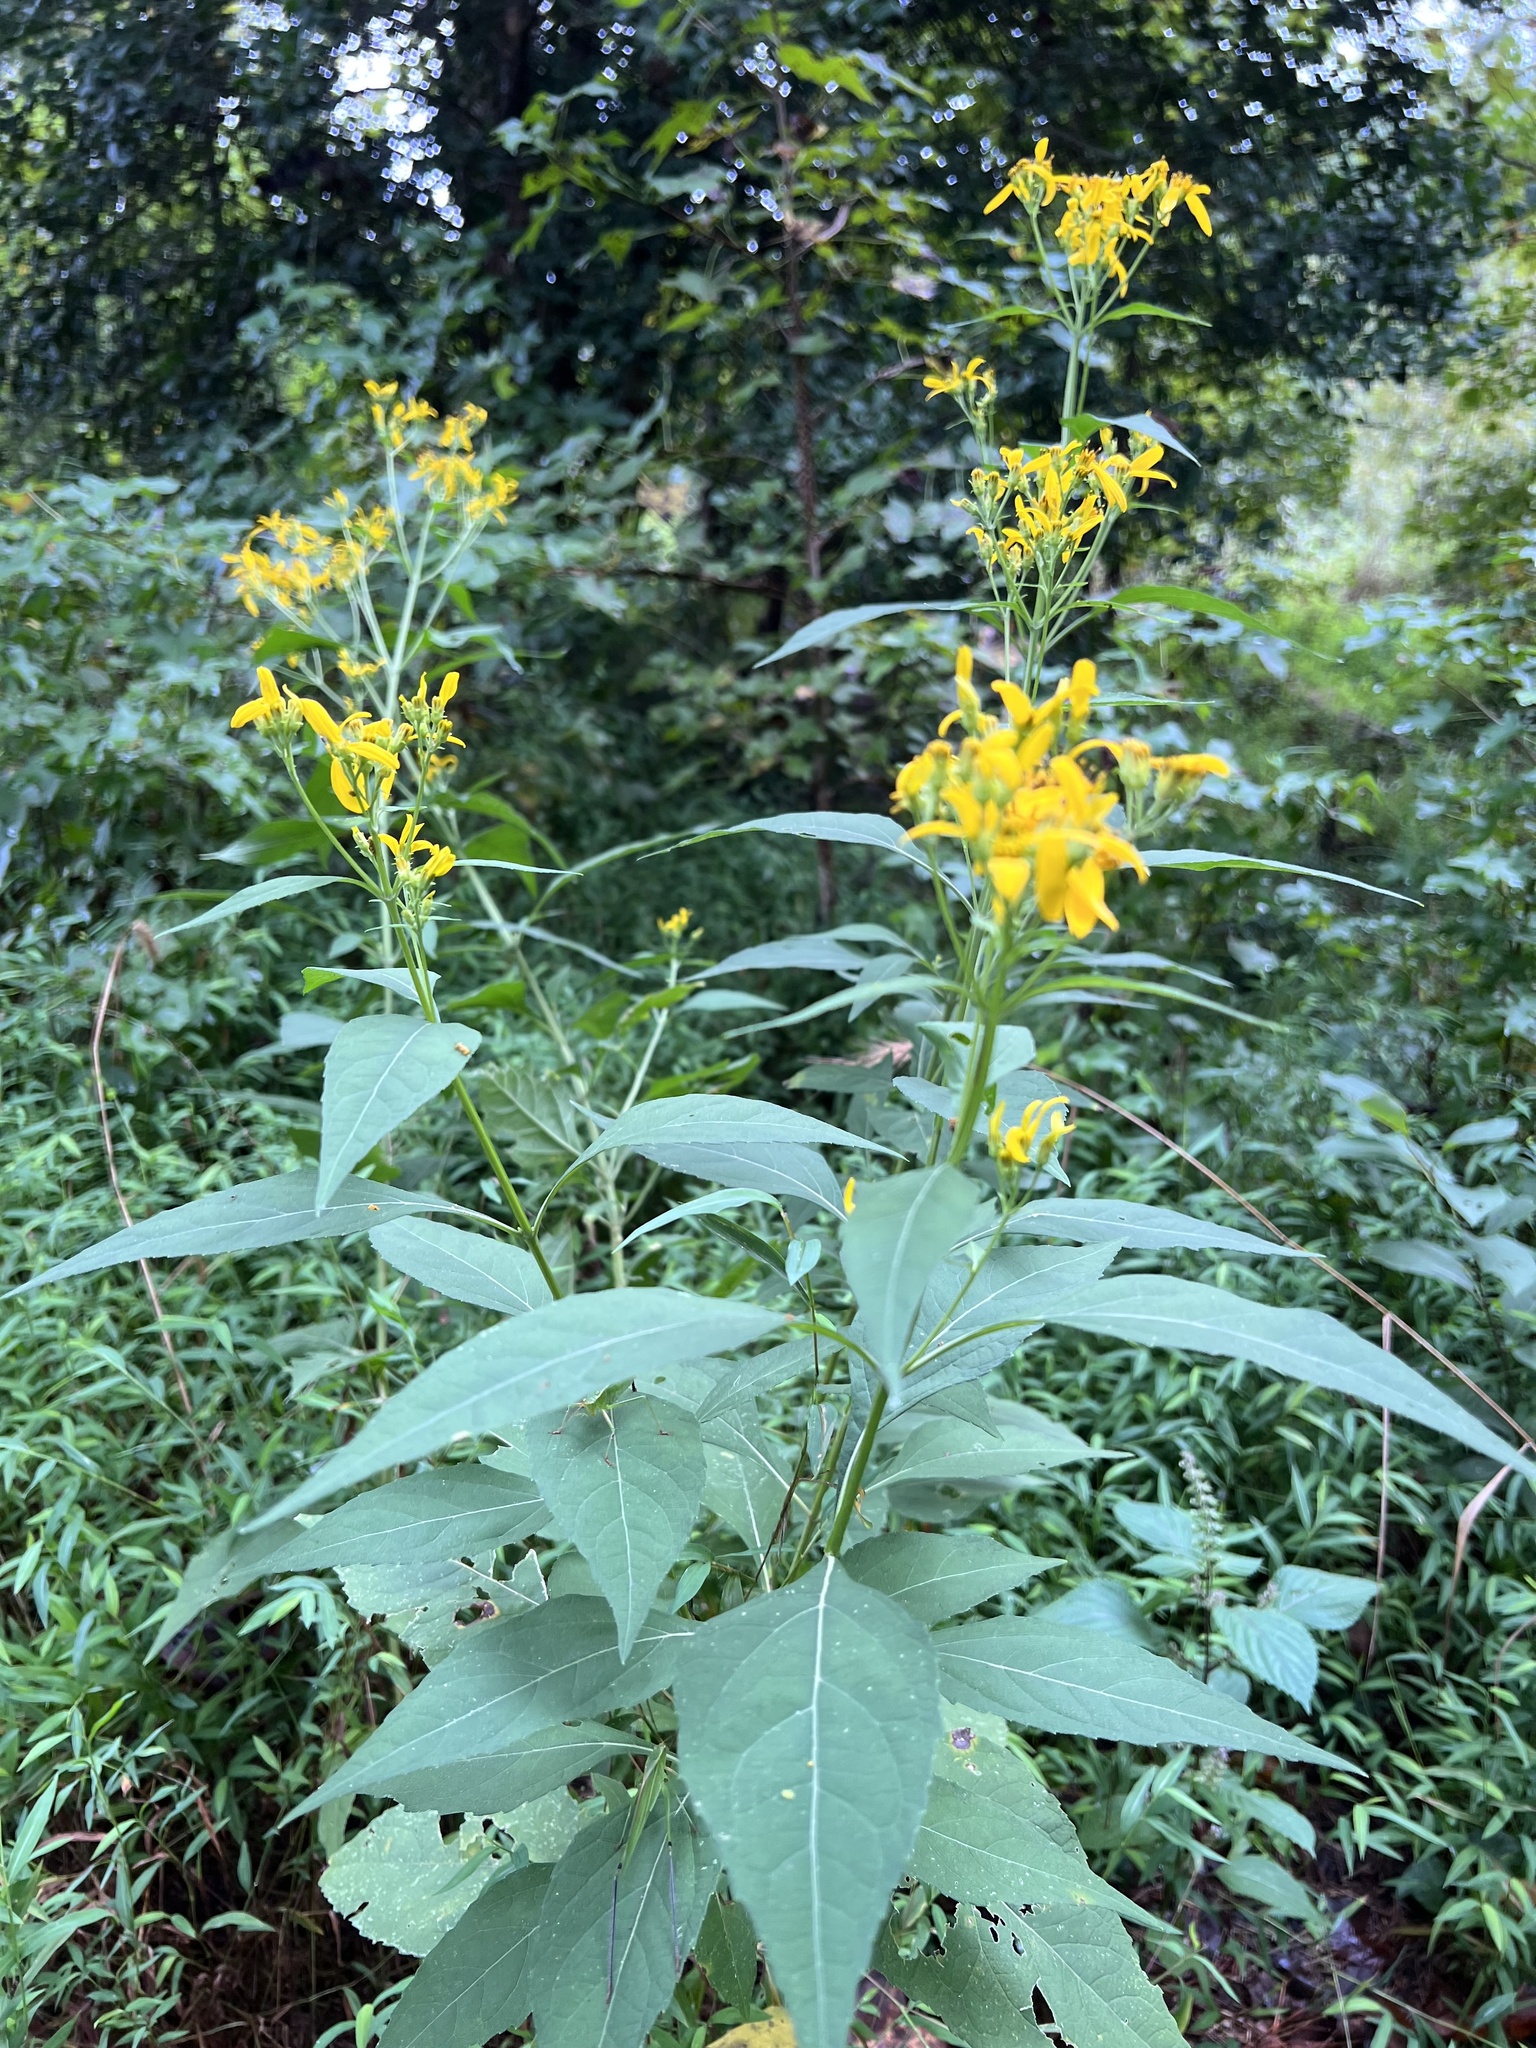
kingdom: Plantae
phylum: Tracheophyta
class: Magnoliopsida
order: Asterales
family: Asteraceae
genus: Verbesina
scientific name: Verbesina occidentalis
